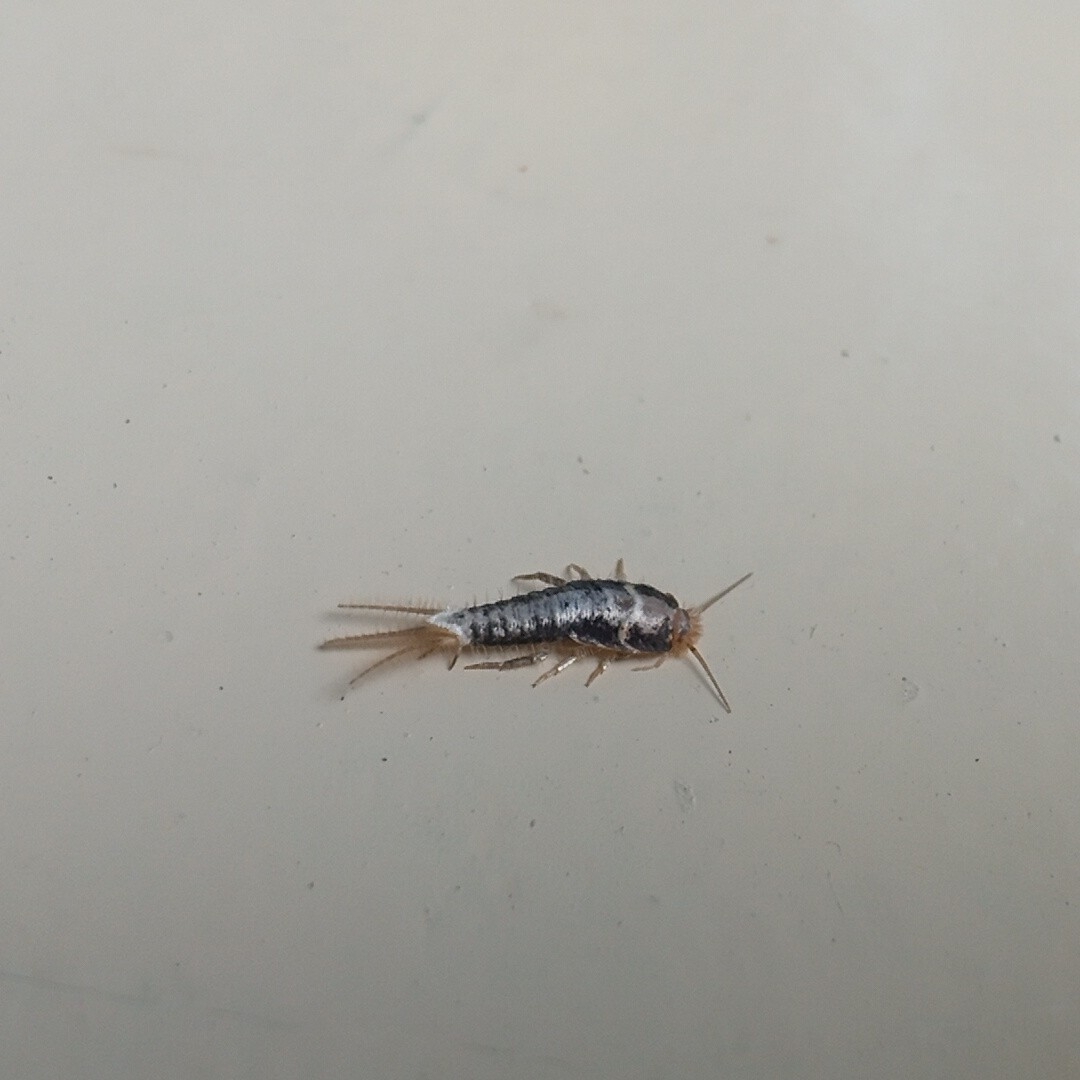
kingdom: Animalia
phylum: Arthropoda
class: Insecta
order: Zygentoma
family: Lepismatidae
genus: Acrotelsa
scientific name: Acrotelsa collaris
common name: Silverfish
